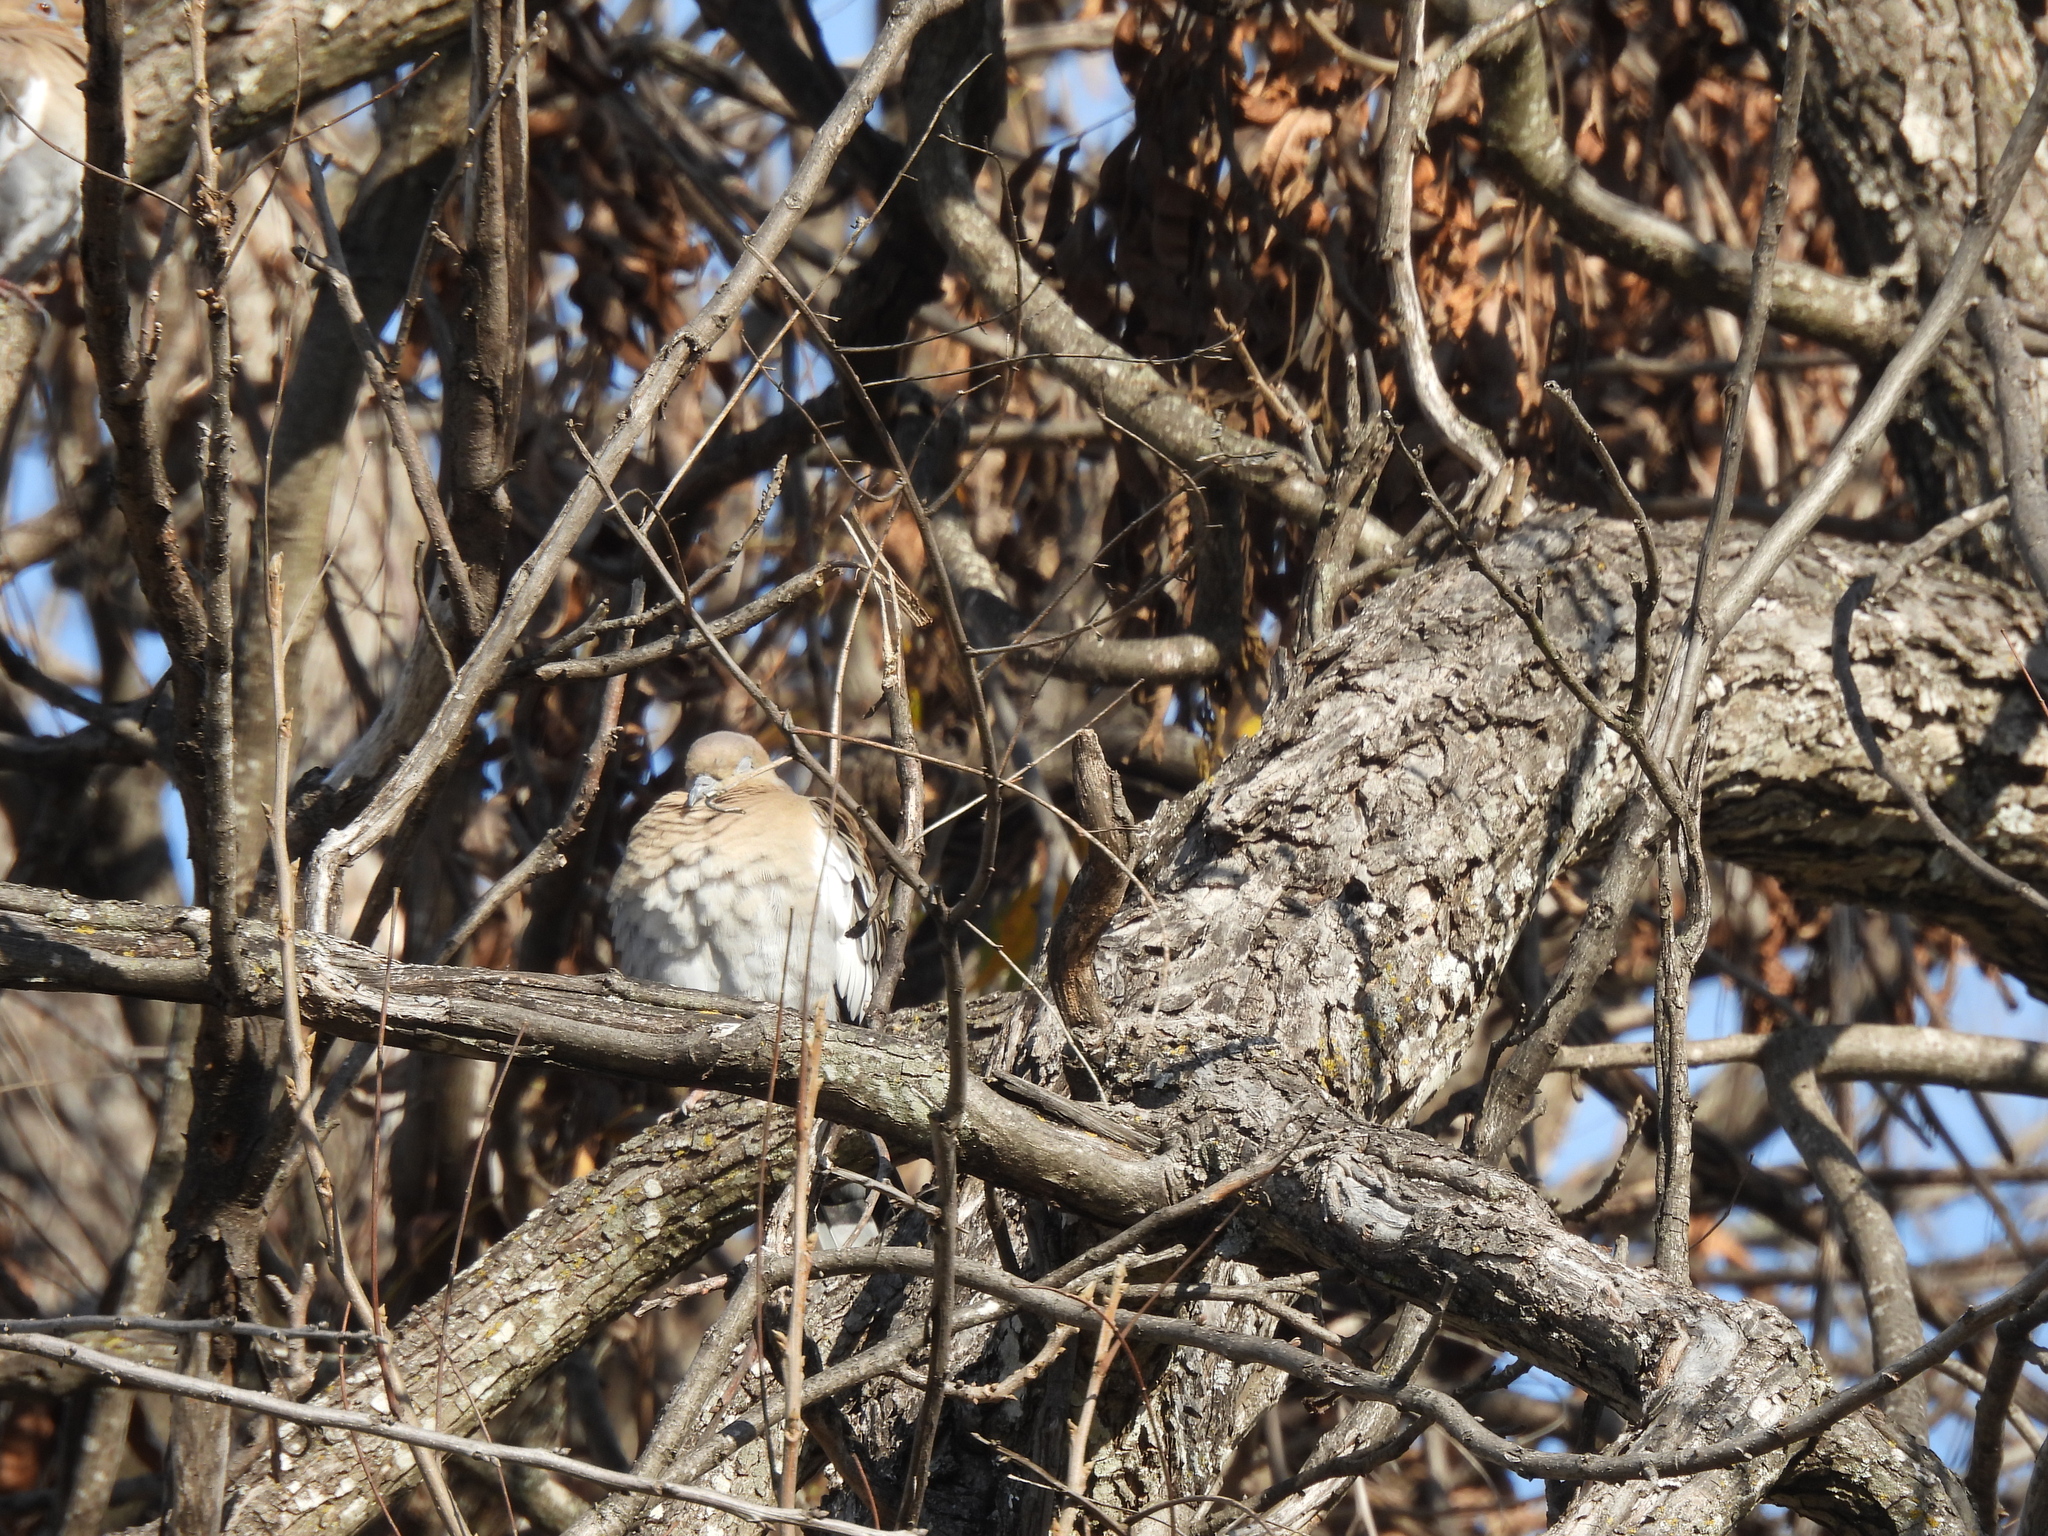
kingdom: Animalia
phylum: Chordata
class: Aves
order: Columbiformes
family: Columbidae
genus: Zenaida
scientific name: Zenaida asiatica
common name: White-winged dove
